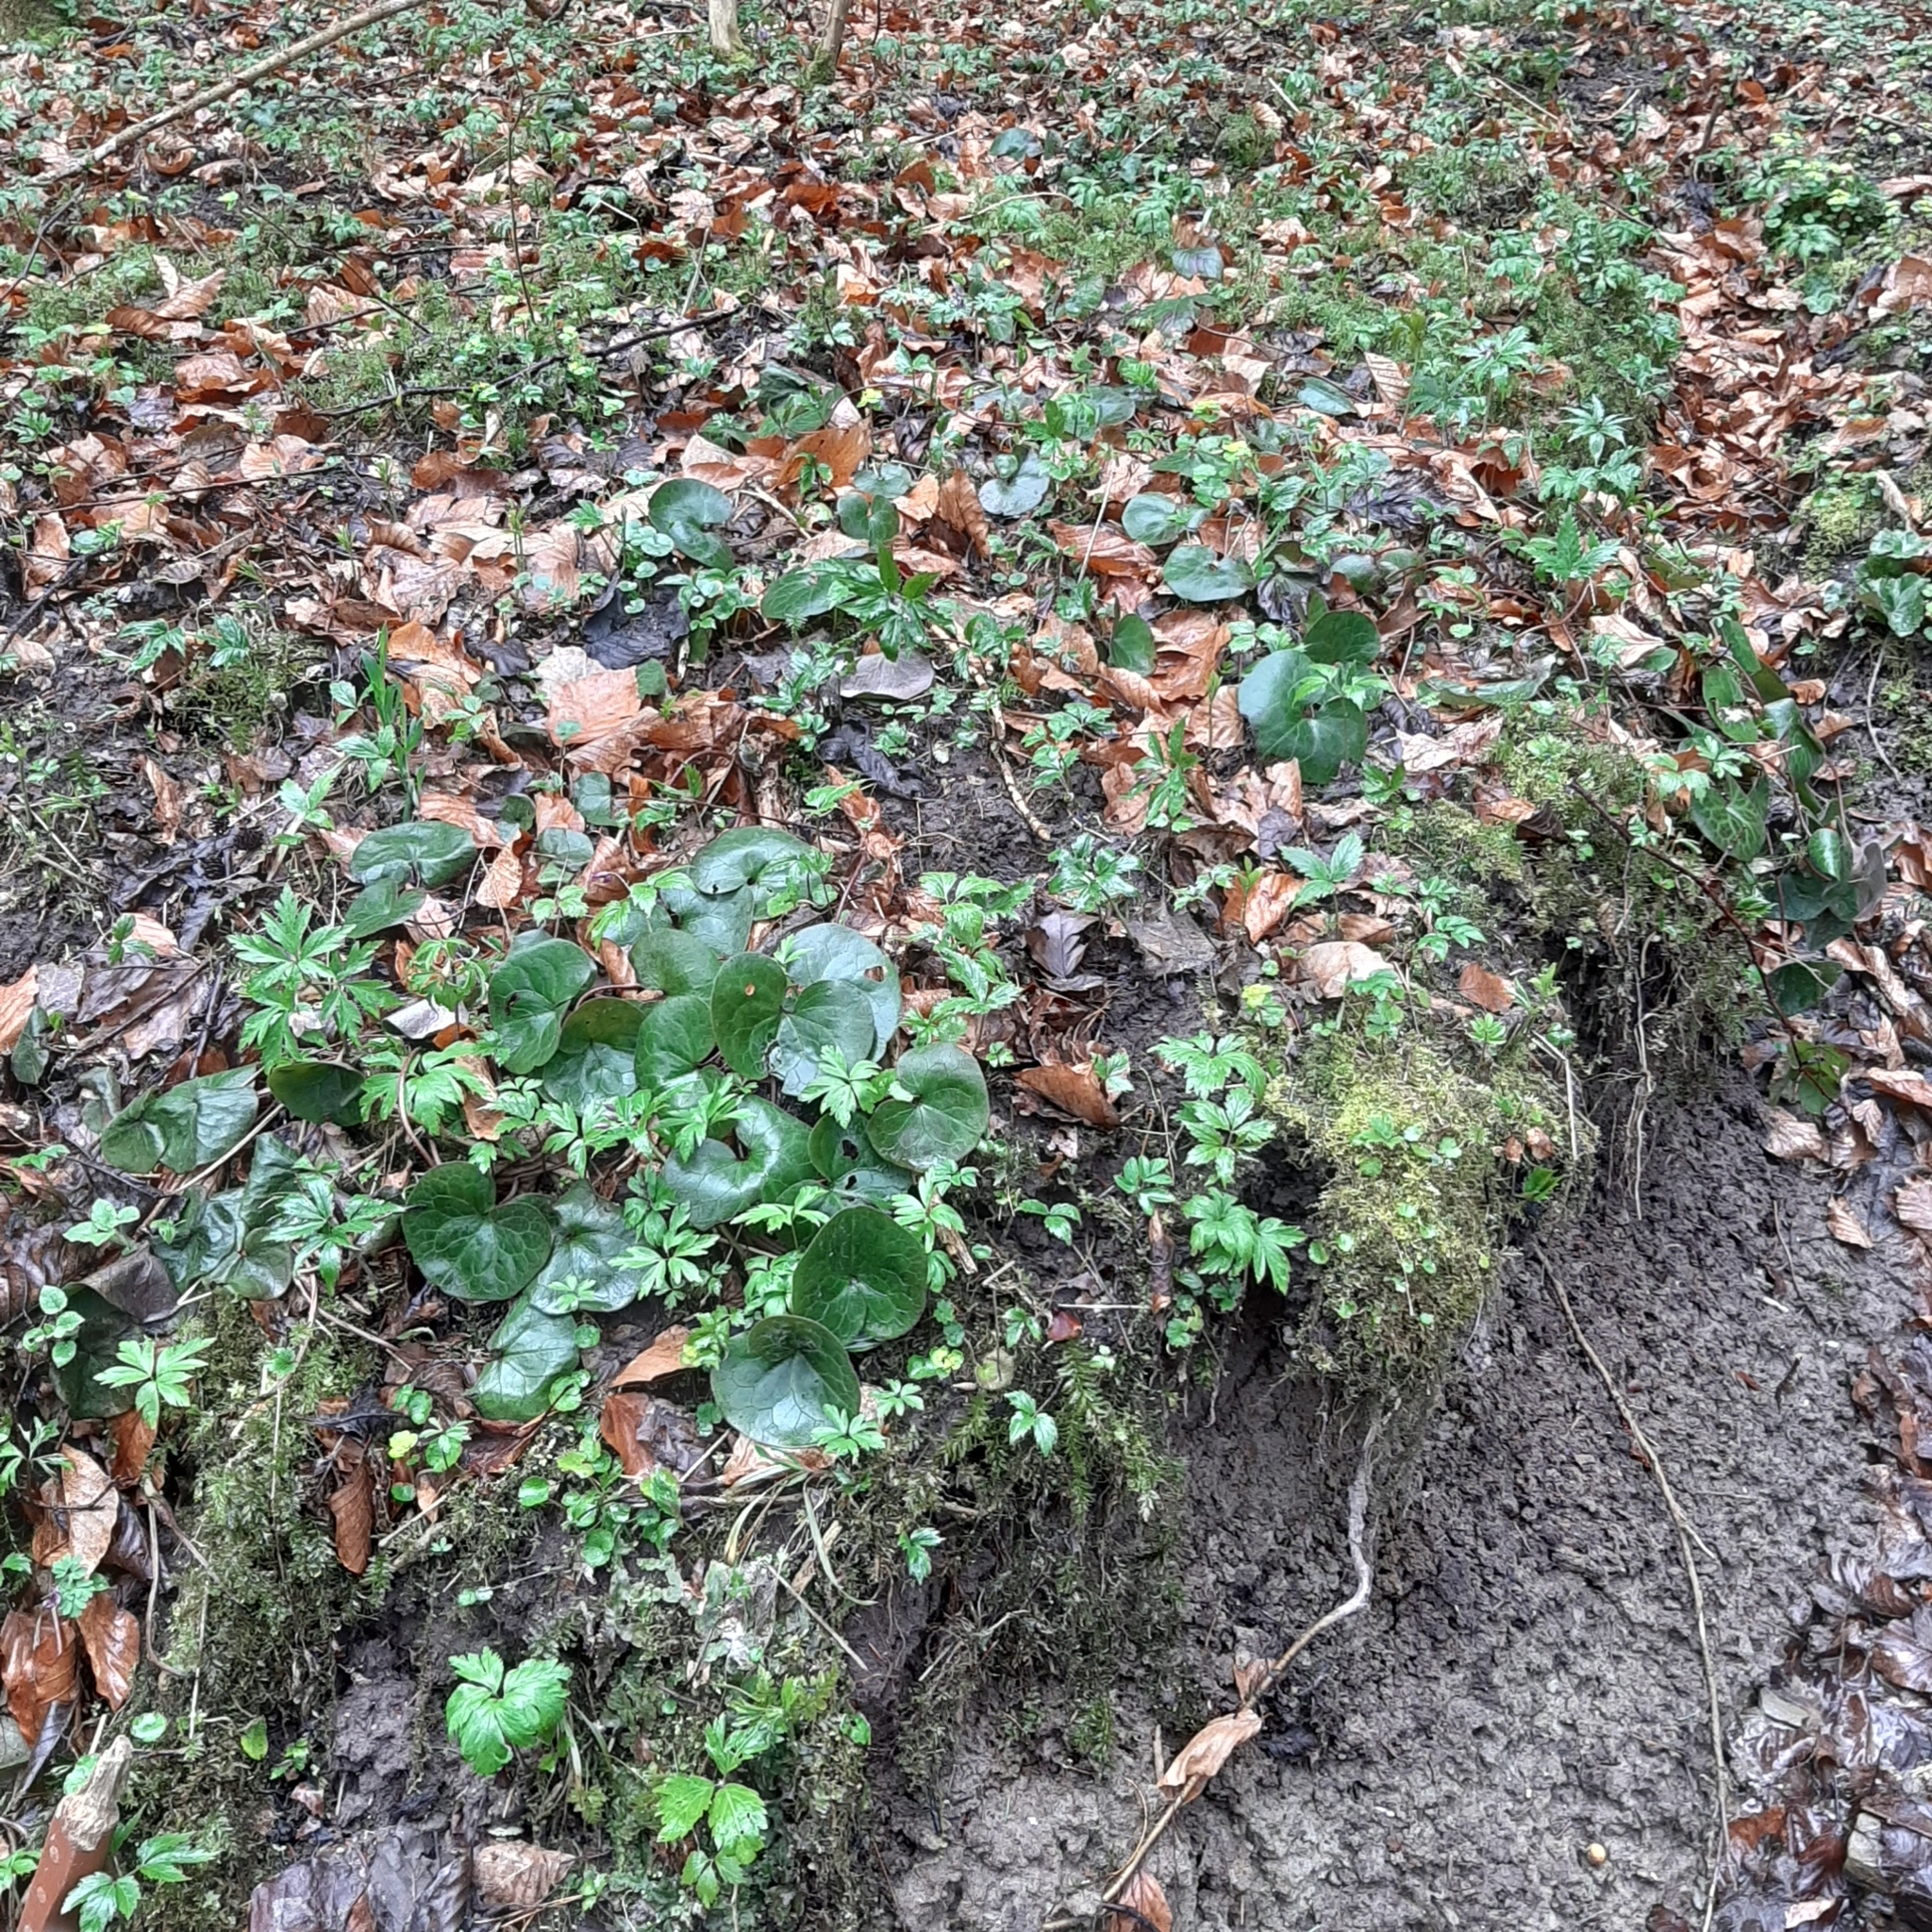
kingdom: Plantae
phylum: Tracheophyta
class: Magnoliopsida
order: Piperales
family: Aristolochiaceae
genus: Asarum
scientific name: Asarum europaeum
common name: Asarabacca
